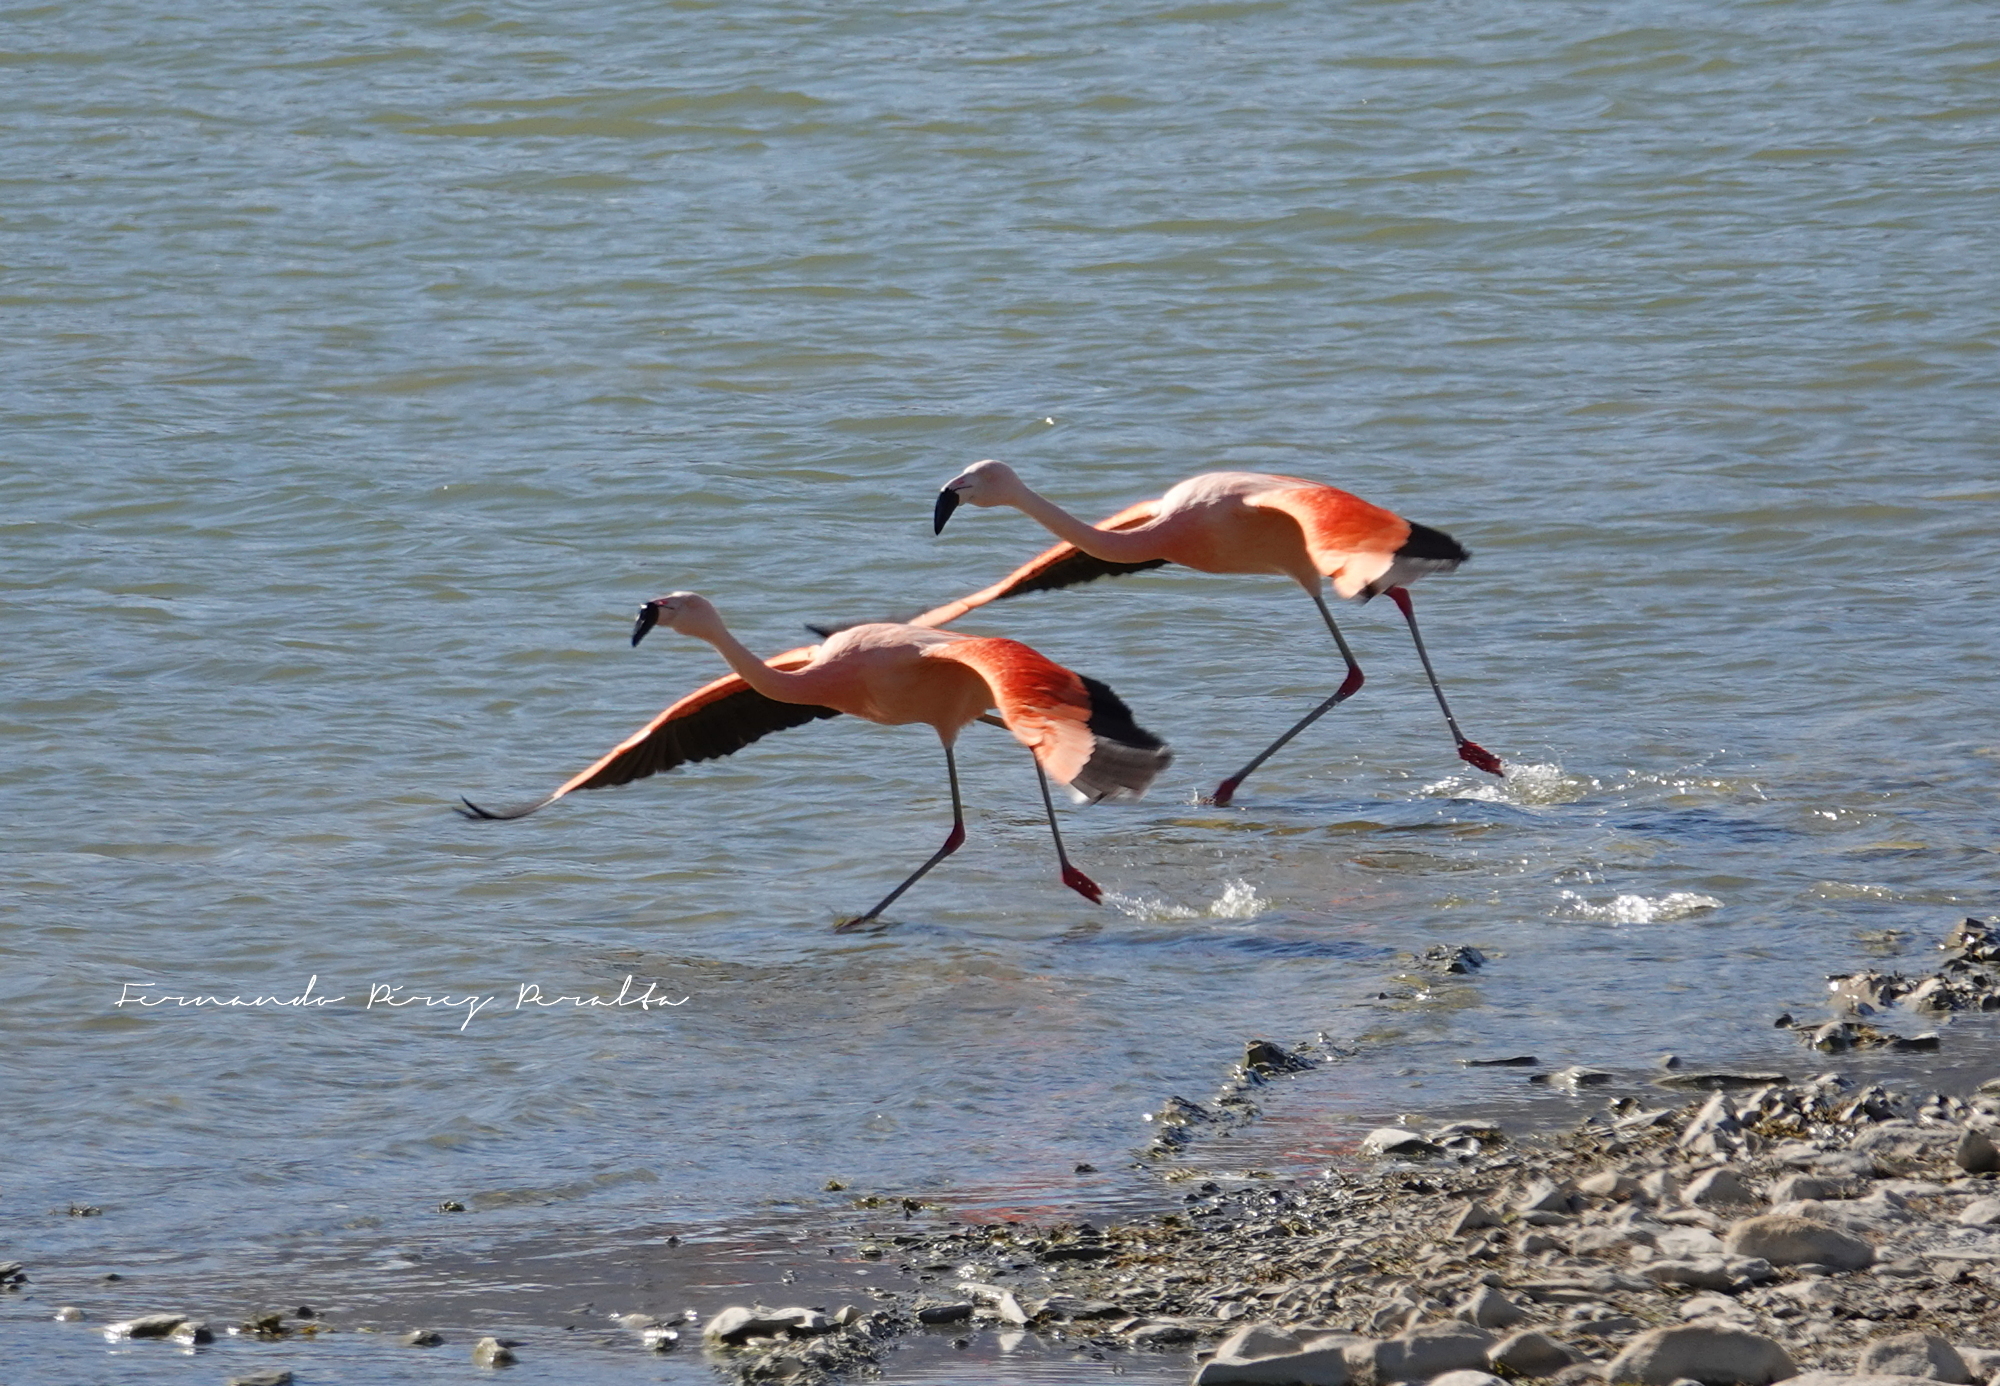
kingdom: Animalia
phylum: Chordata
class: Aves
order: Phoenicopteriformes
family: Phoenicopteridae
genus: Phoenicopterus
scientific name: Phoenicopterus chilensis
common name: Chilean flamingo
